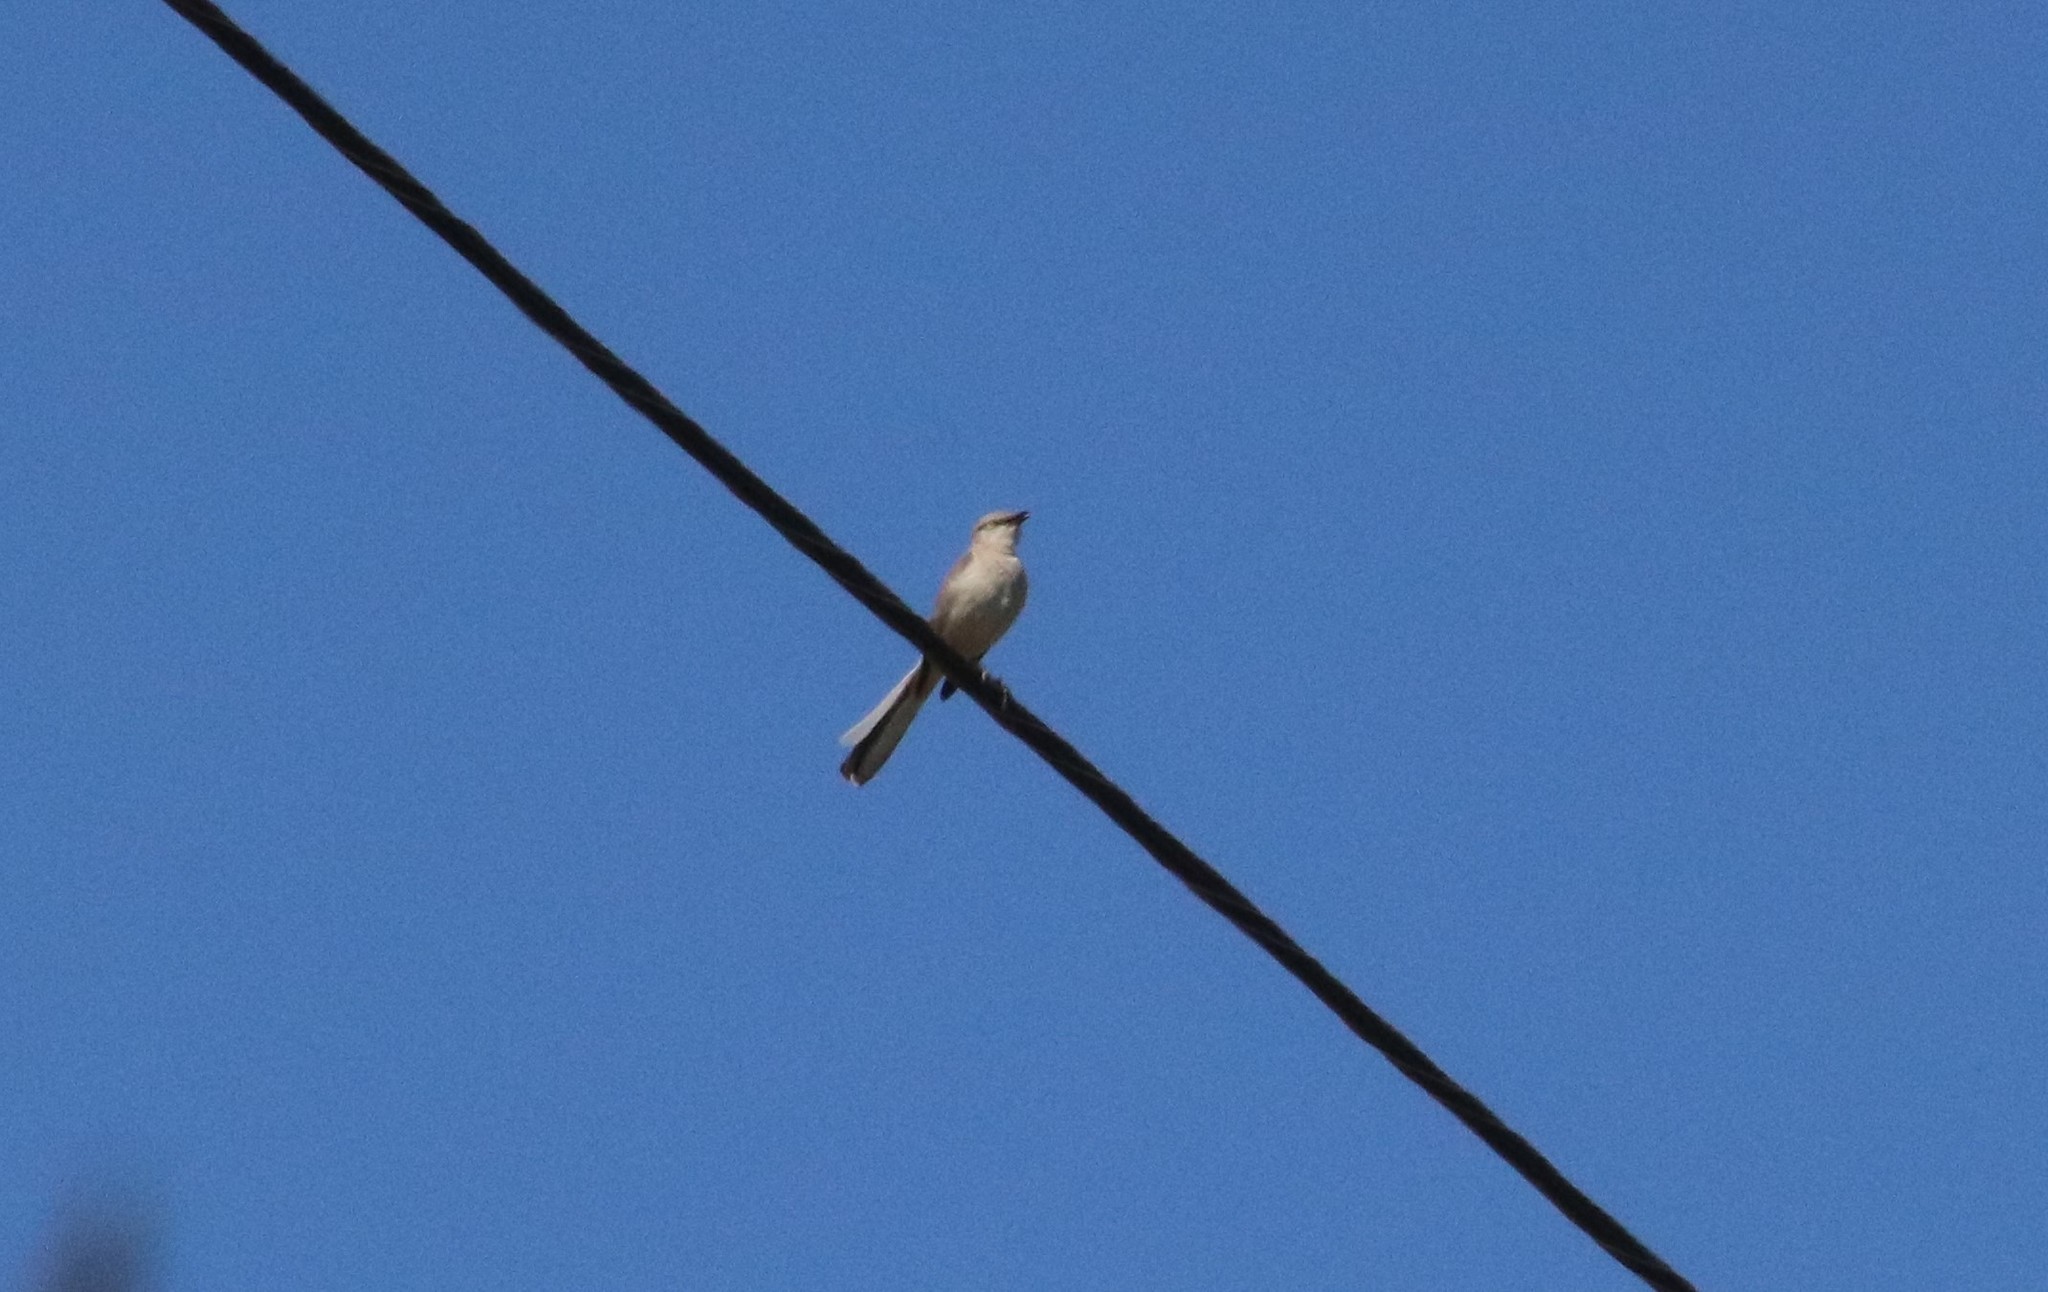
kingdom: Animalia
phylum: Chordata
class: Aves
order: Passeriformes
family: Mimidae
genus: Mimus
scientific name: Mimus polyglottos
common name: Northern mockingbird
